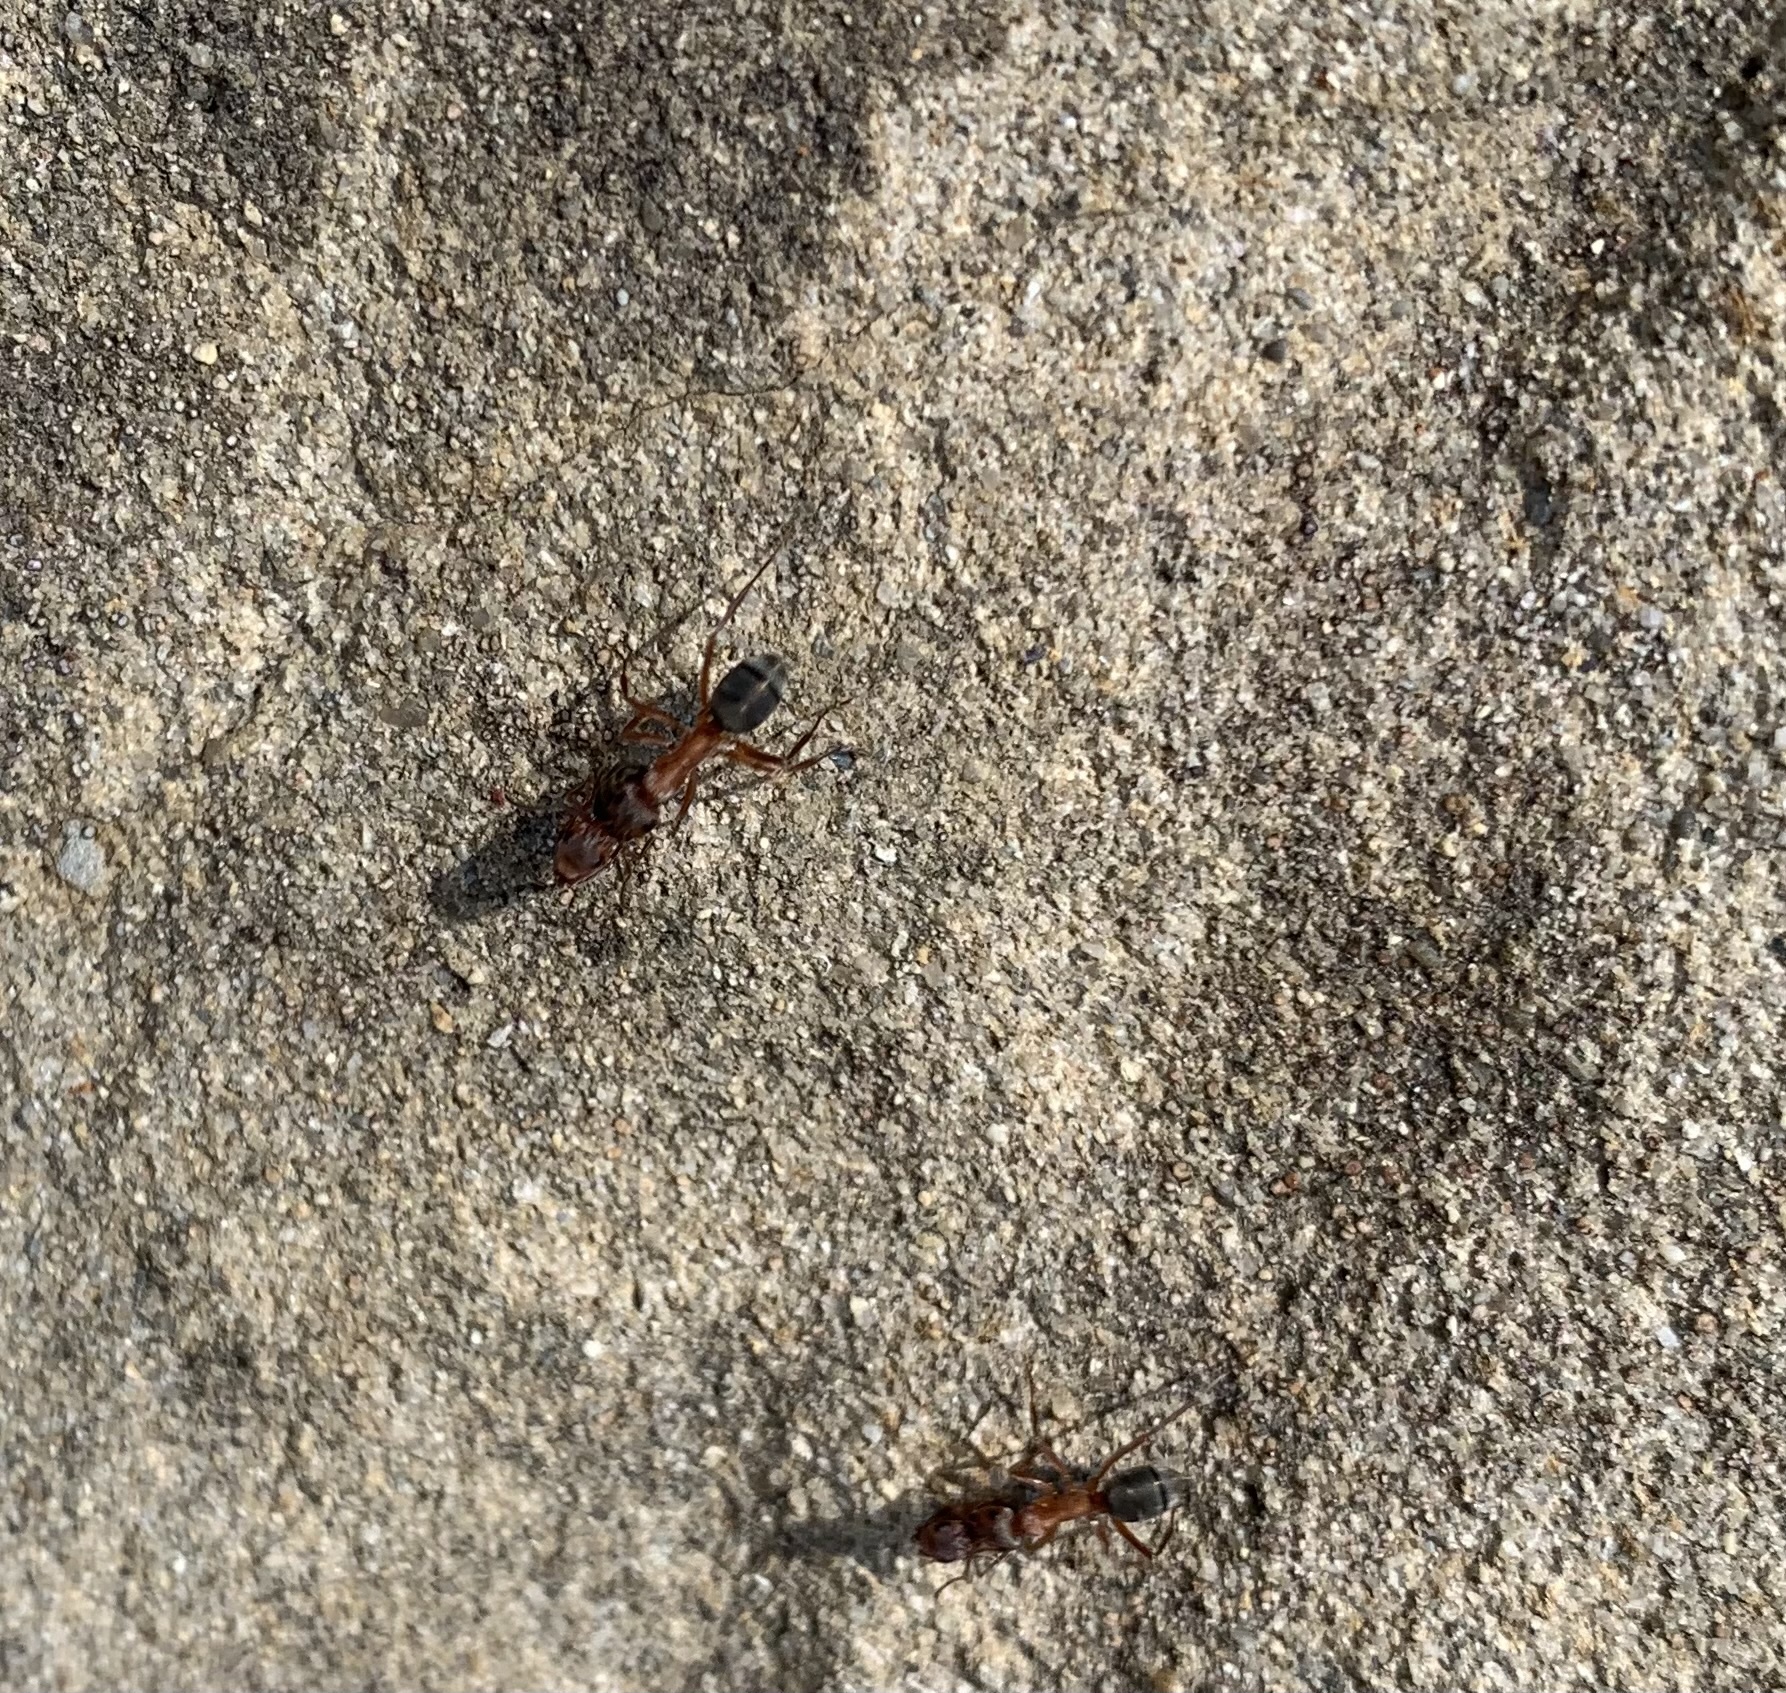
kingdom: Animalia
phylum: Arthropoda
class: Insecta
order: Hymenoptera
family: Formicidae
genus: Formica
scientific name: Formica moki
